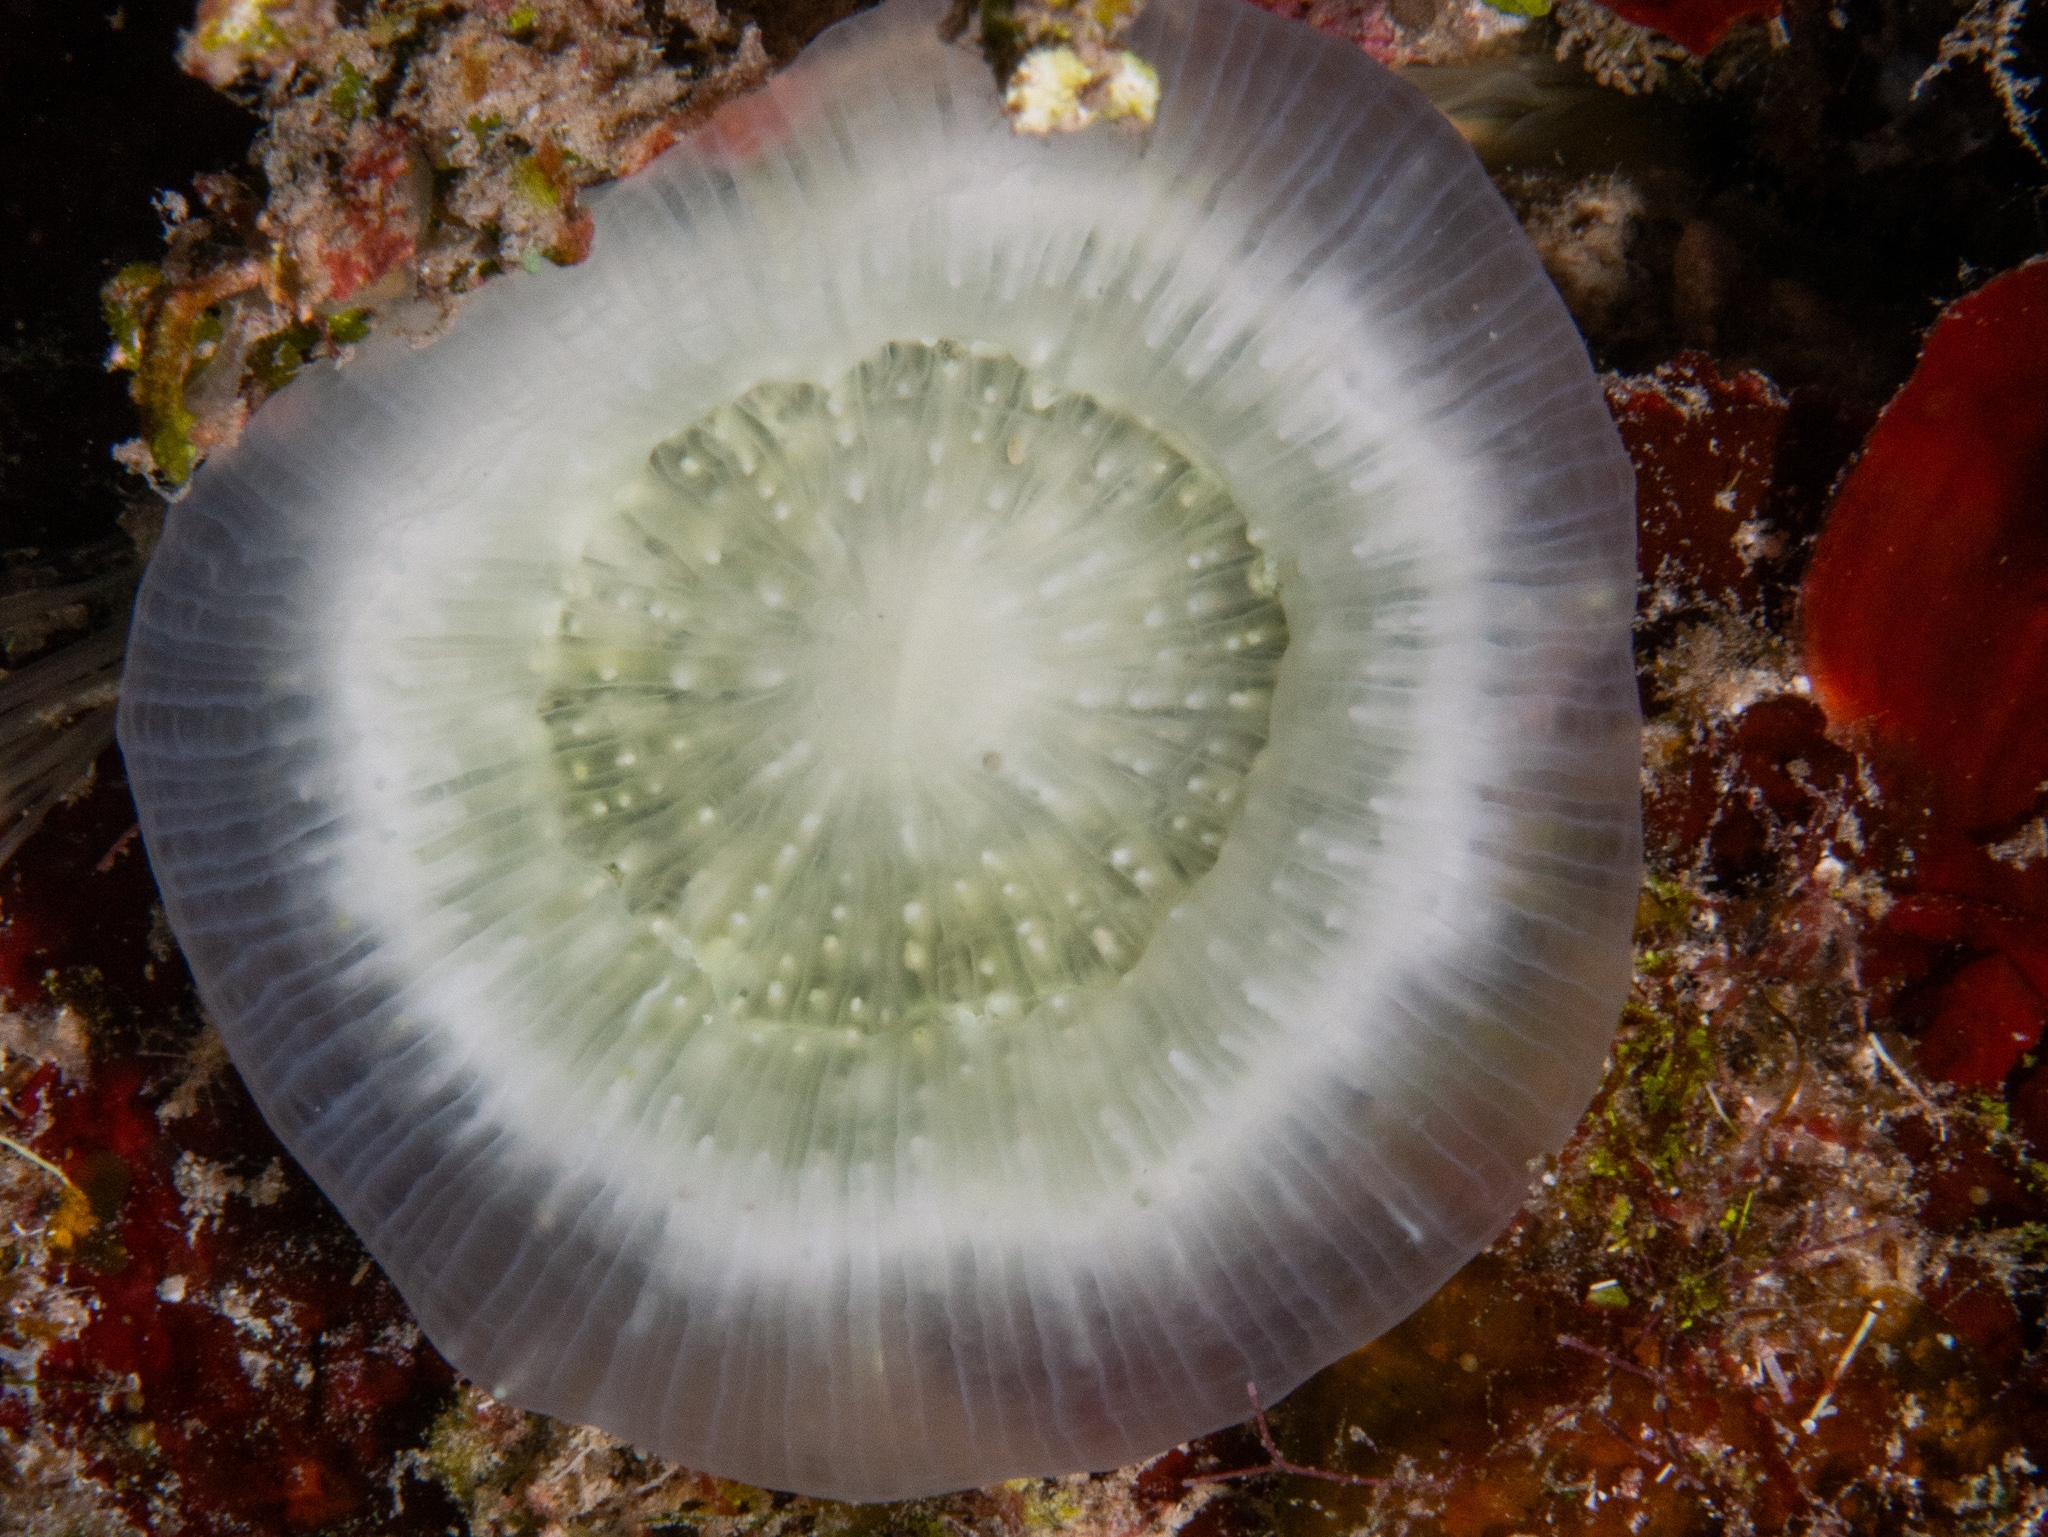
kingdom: Animalia
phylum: Cnidaria
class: Anthozoa
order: Scleractinia
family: Faviidae
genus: Scolymia
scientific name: Scolymia cubensis
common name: Artichoke coral
